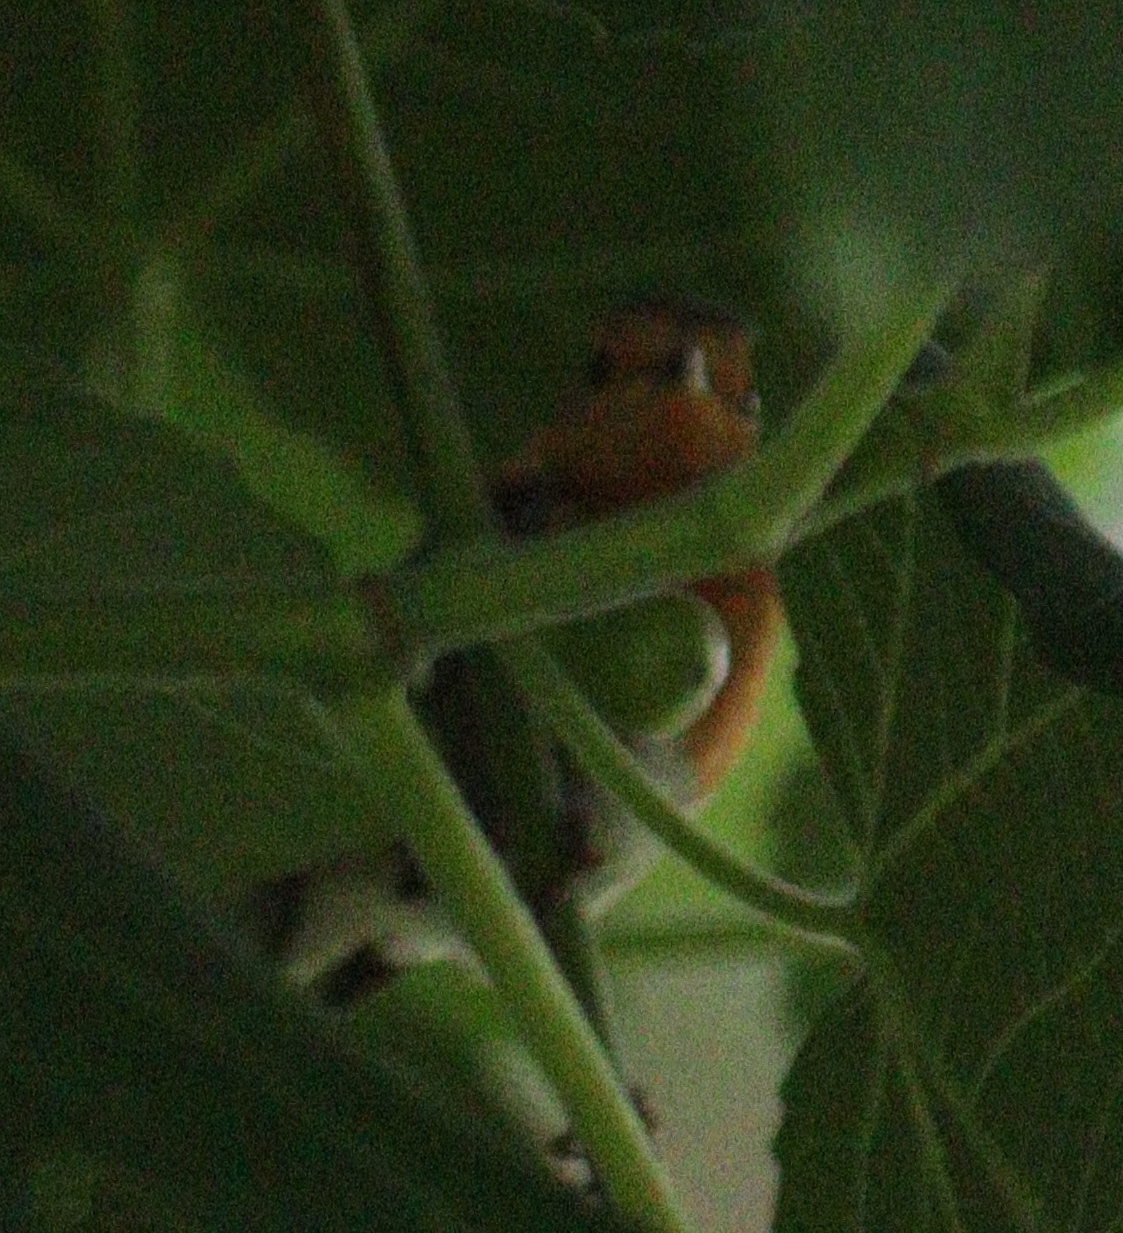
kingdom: Animalia
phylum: Chordata
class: Aves
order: Passeriformes
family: Muscicapidae
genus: Erithacus
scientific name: Erithacus rubecula
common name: European robin
